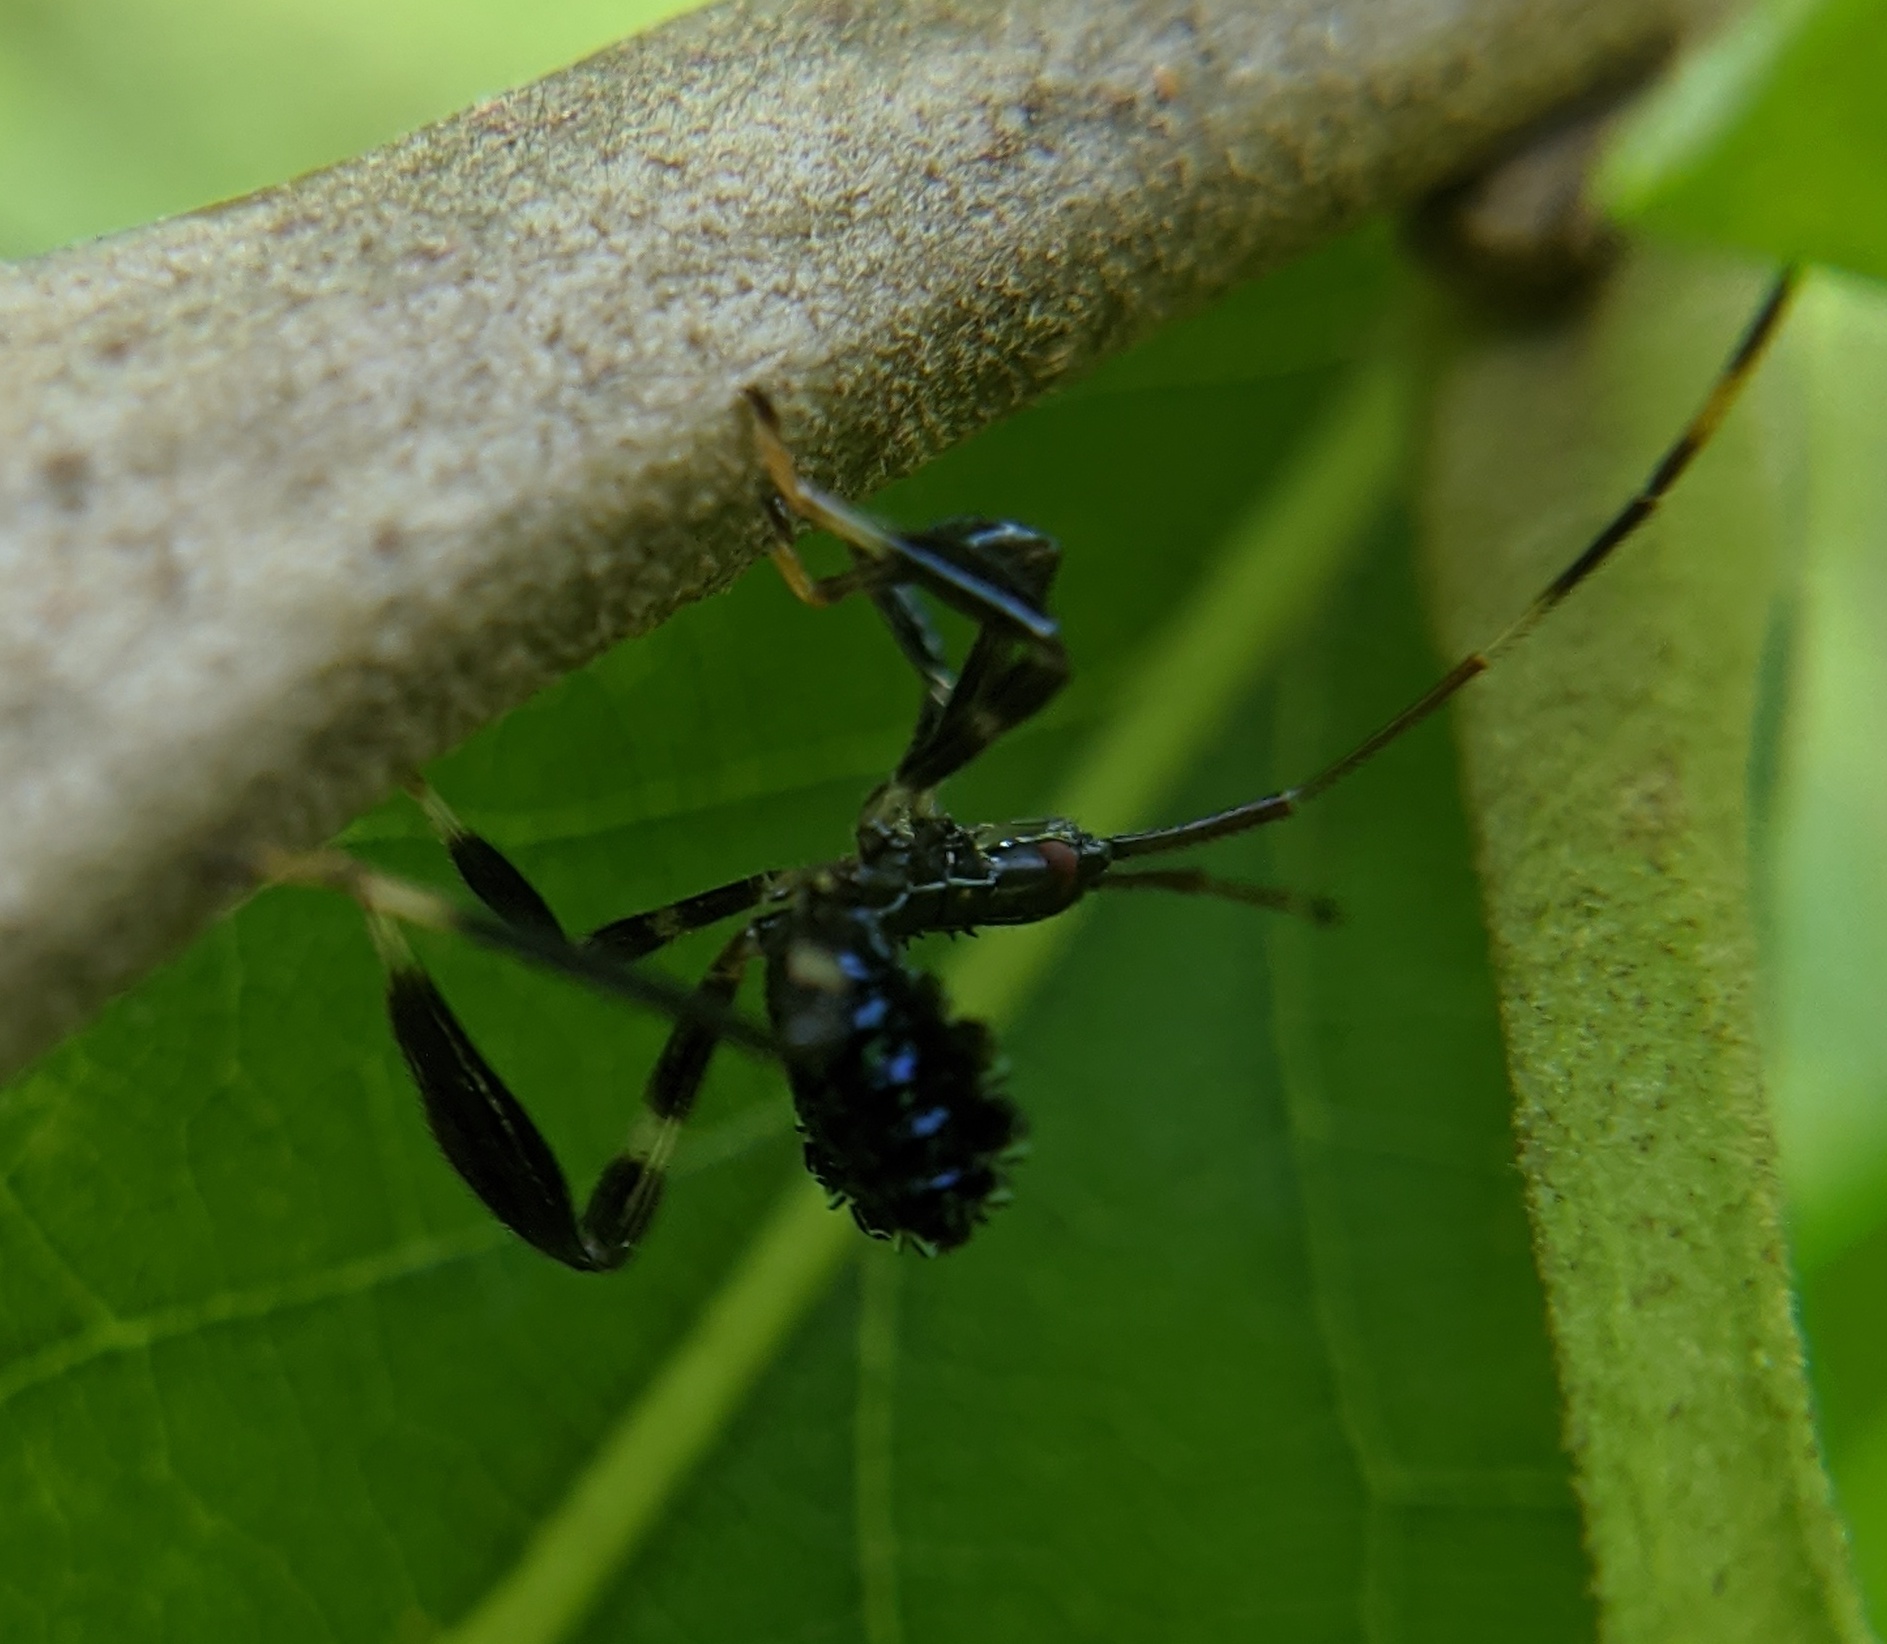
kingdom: Animalia
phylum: Arthropoda
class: Insecta
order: Hemiptera
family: Coreidae
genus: Acanthocephala
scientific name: Acanthocephala terminalis
